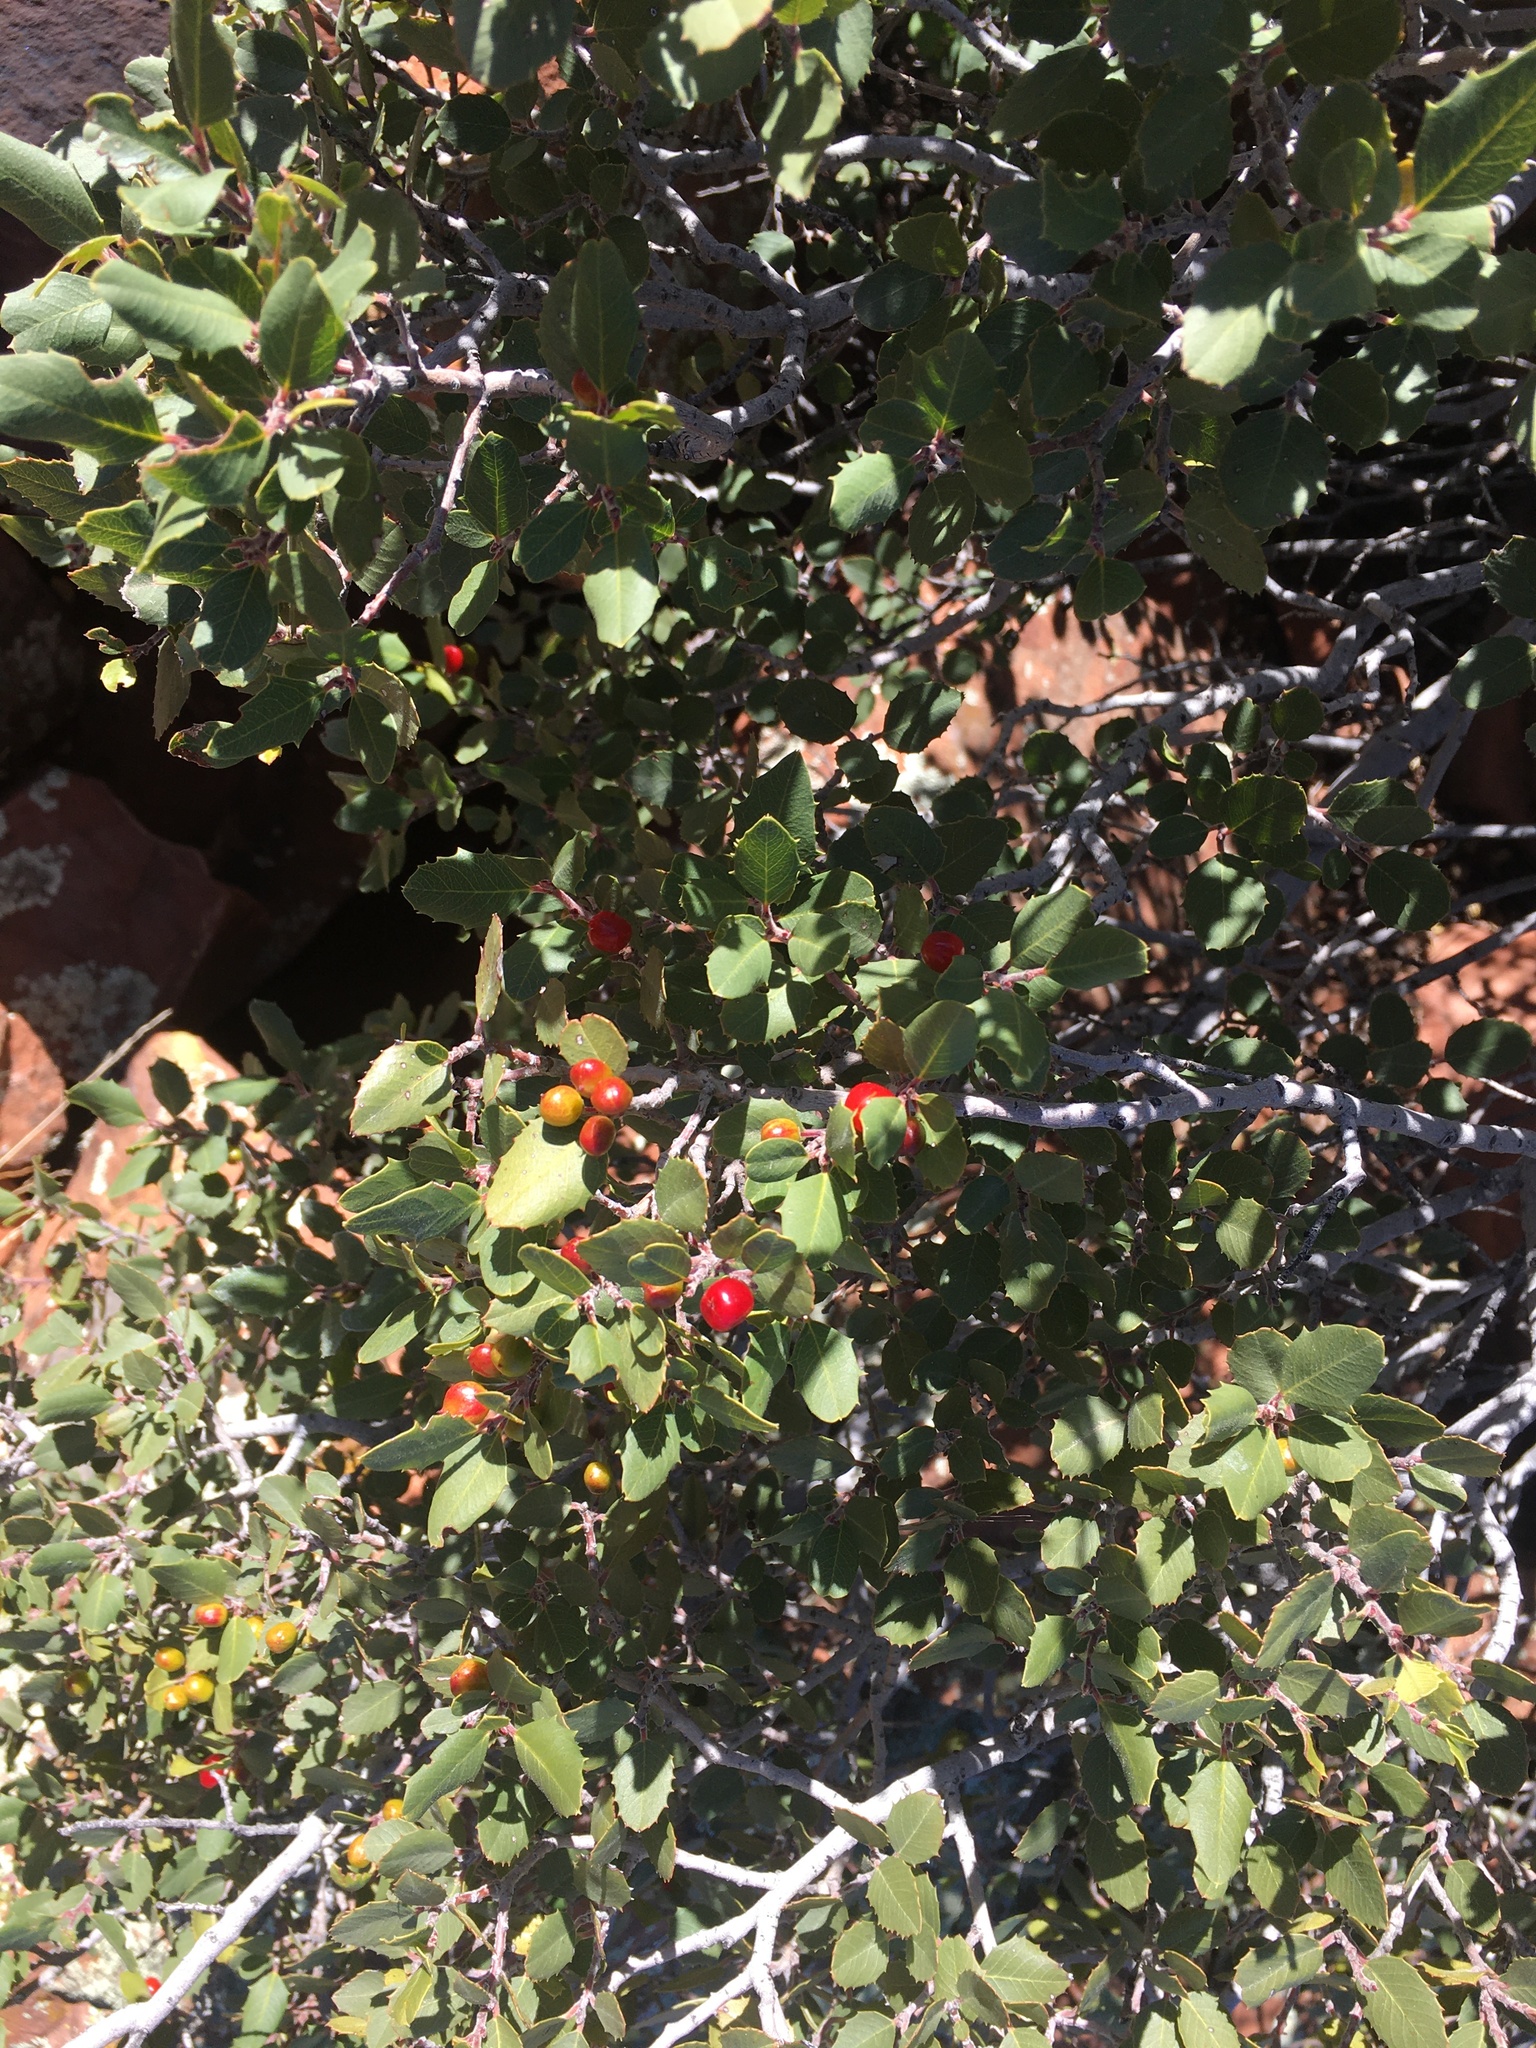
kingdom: Plantae
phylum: Tracheophyta
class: Magnoliopsida
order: Rosales
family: Rhamnaceae
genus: Endotropis
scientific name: Endotropis crocea
